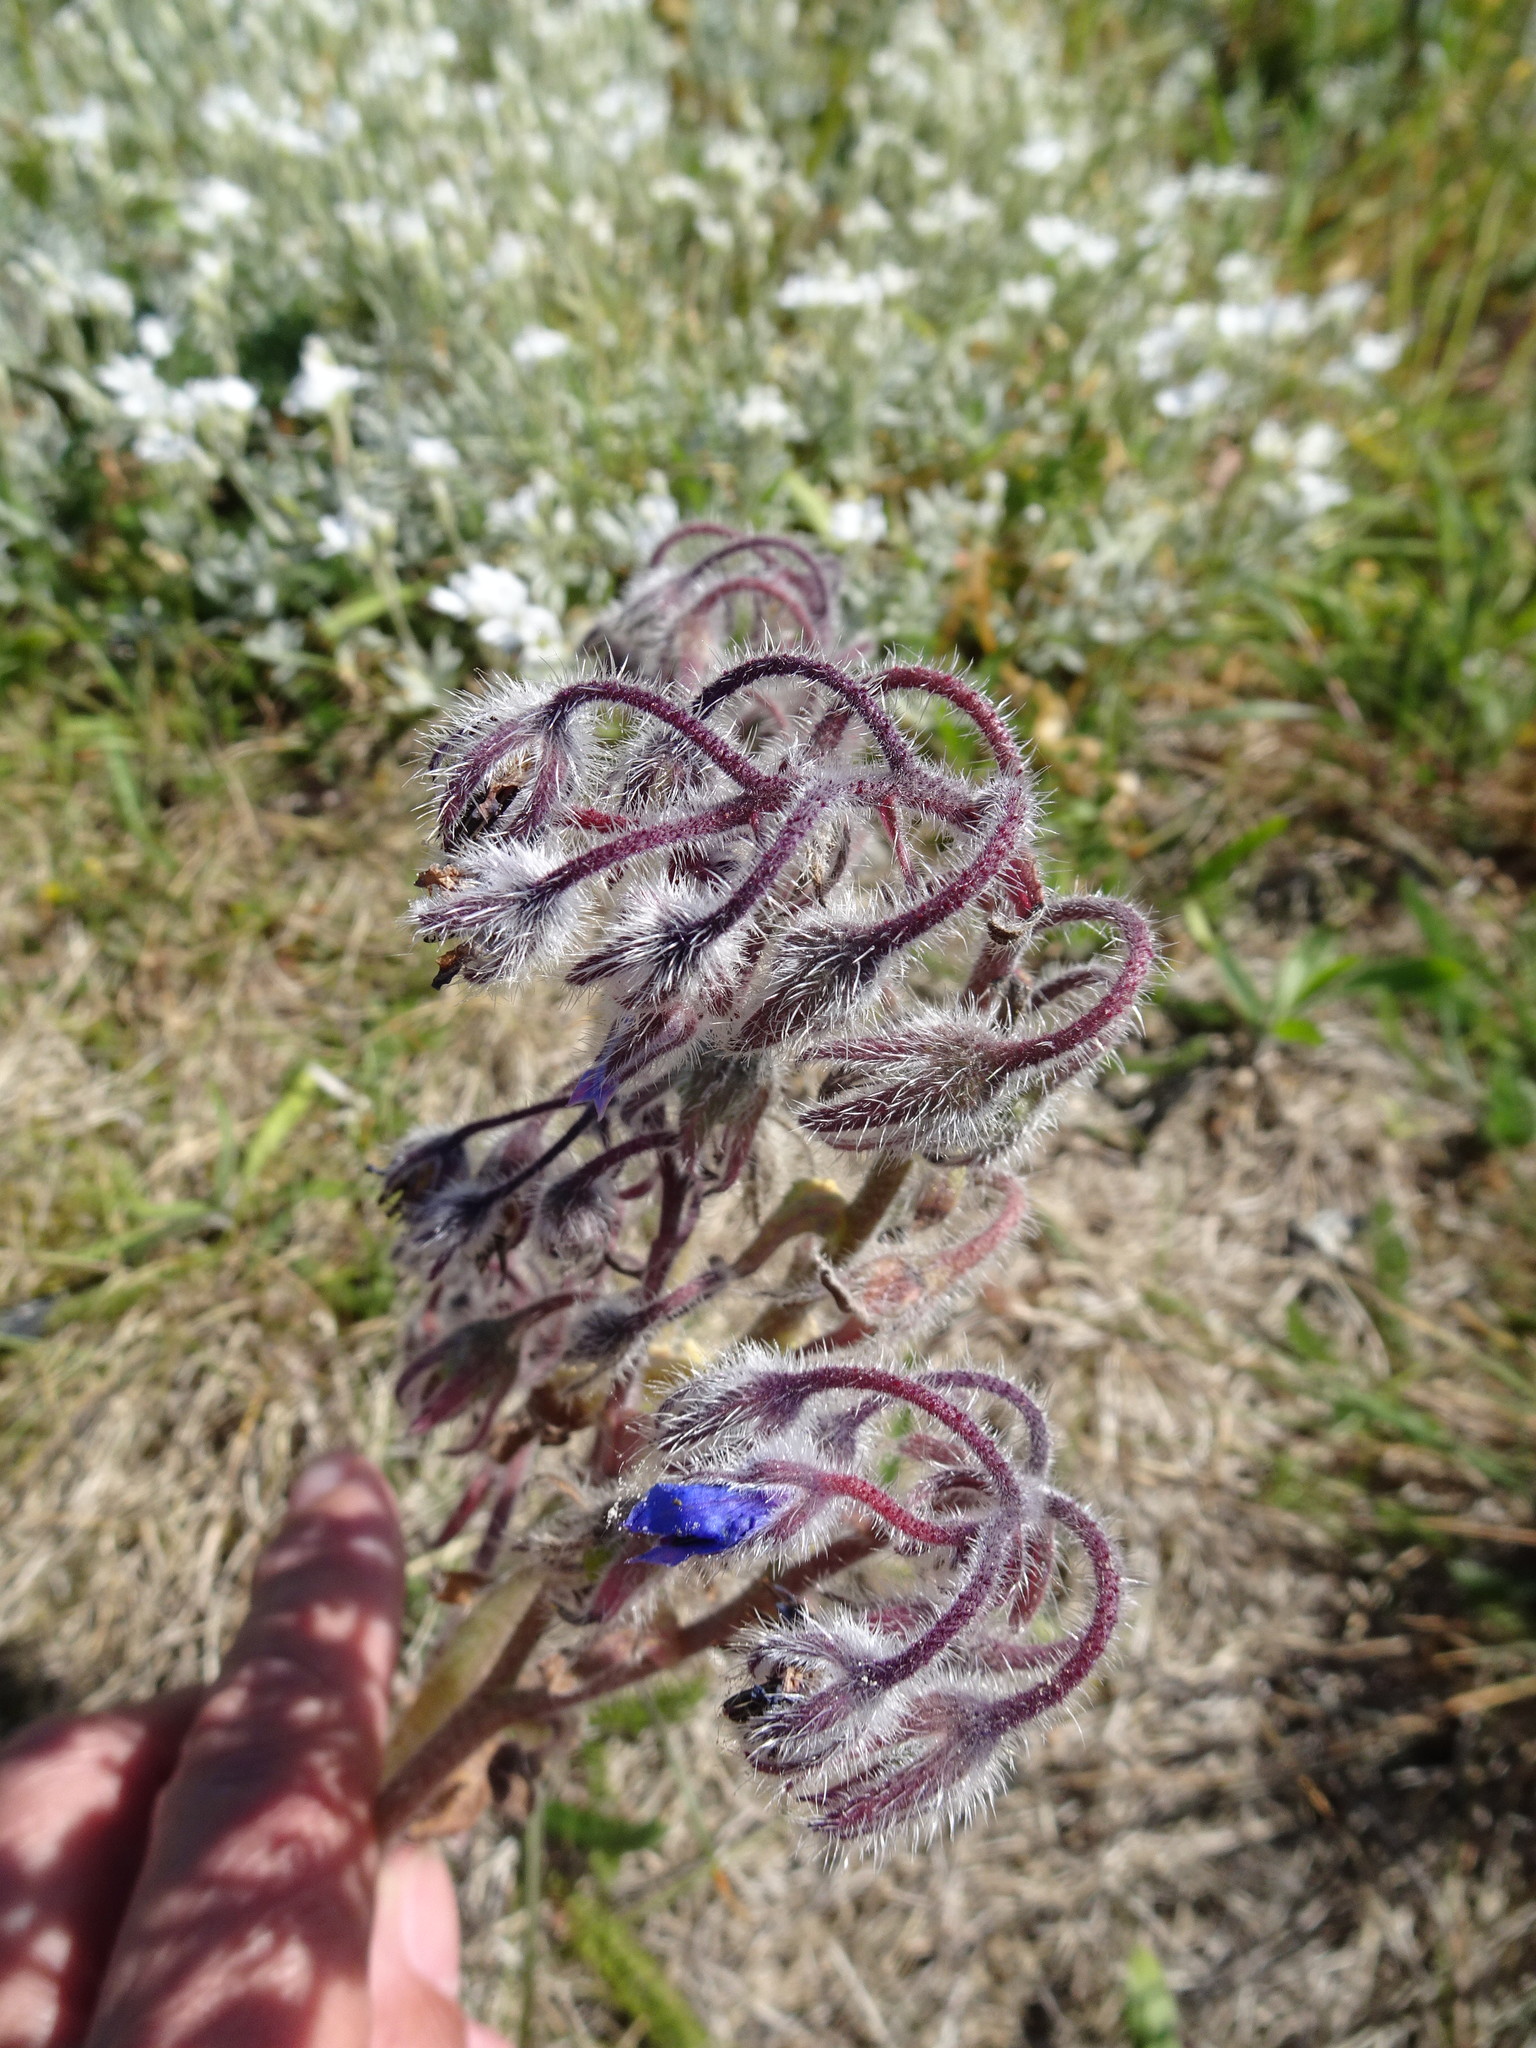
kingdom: Plantae
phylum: Tracheophyta
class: Magnoliopsida
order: Boraginales
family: Boraginaceae
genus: Borago
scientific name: Borago officinalis
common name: Borage
